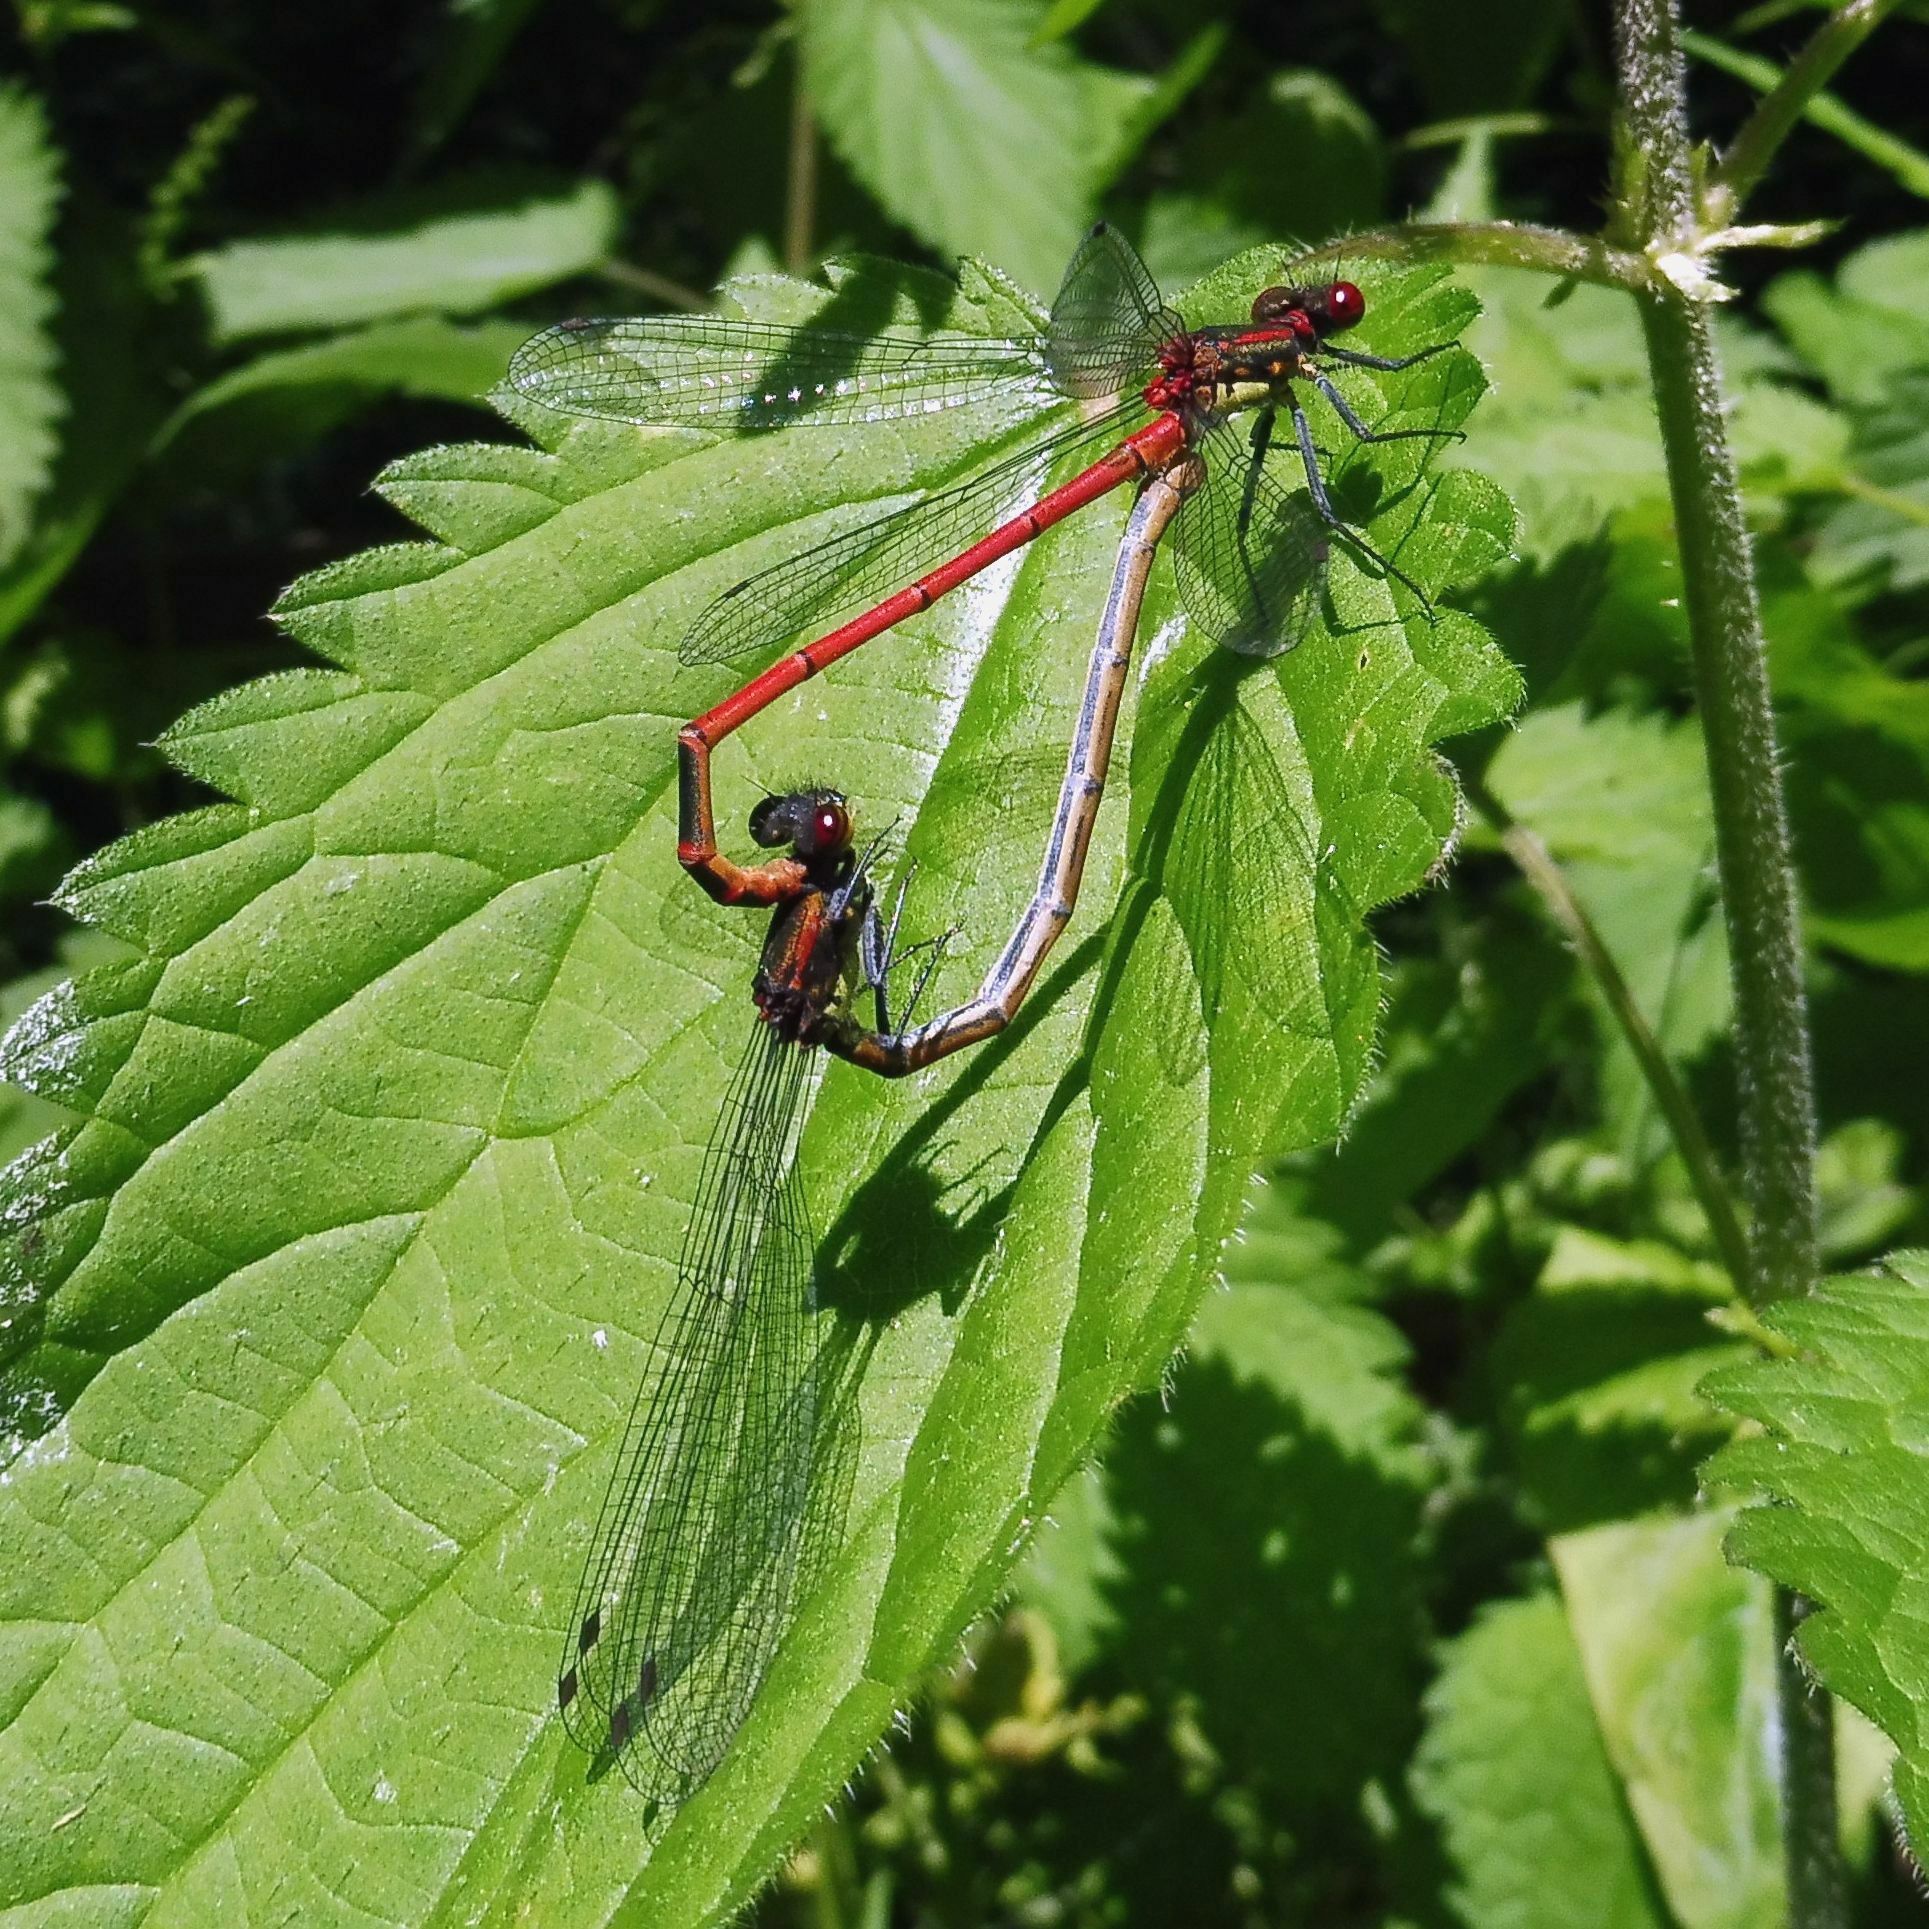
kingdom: Animalia
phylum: Arthropoda
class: Insecta
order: Odonata
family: Coenagrionidae
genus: Pyrrhosoma
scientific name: Pyrrhosoma nymphula
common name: Large red damsel
